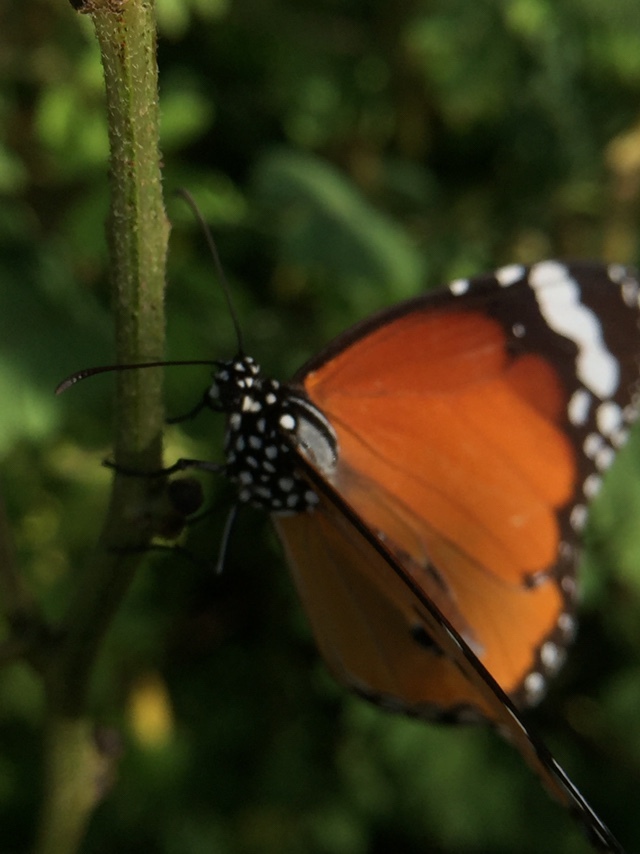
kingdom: Animalia
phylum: Arthropoda
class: Insecta
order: Lepidoptera
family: Nymphalidae
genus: Danaus
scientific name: Danaus chrysippus
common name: Plain tiger
